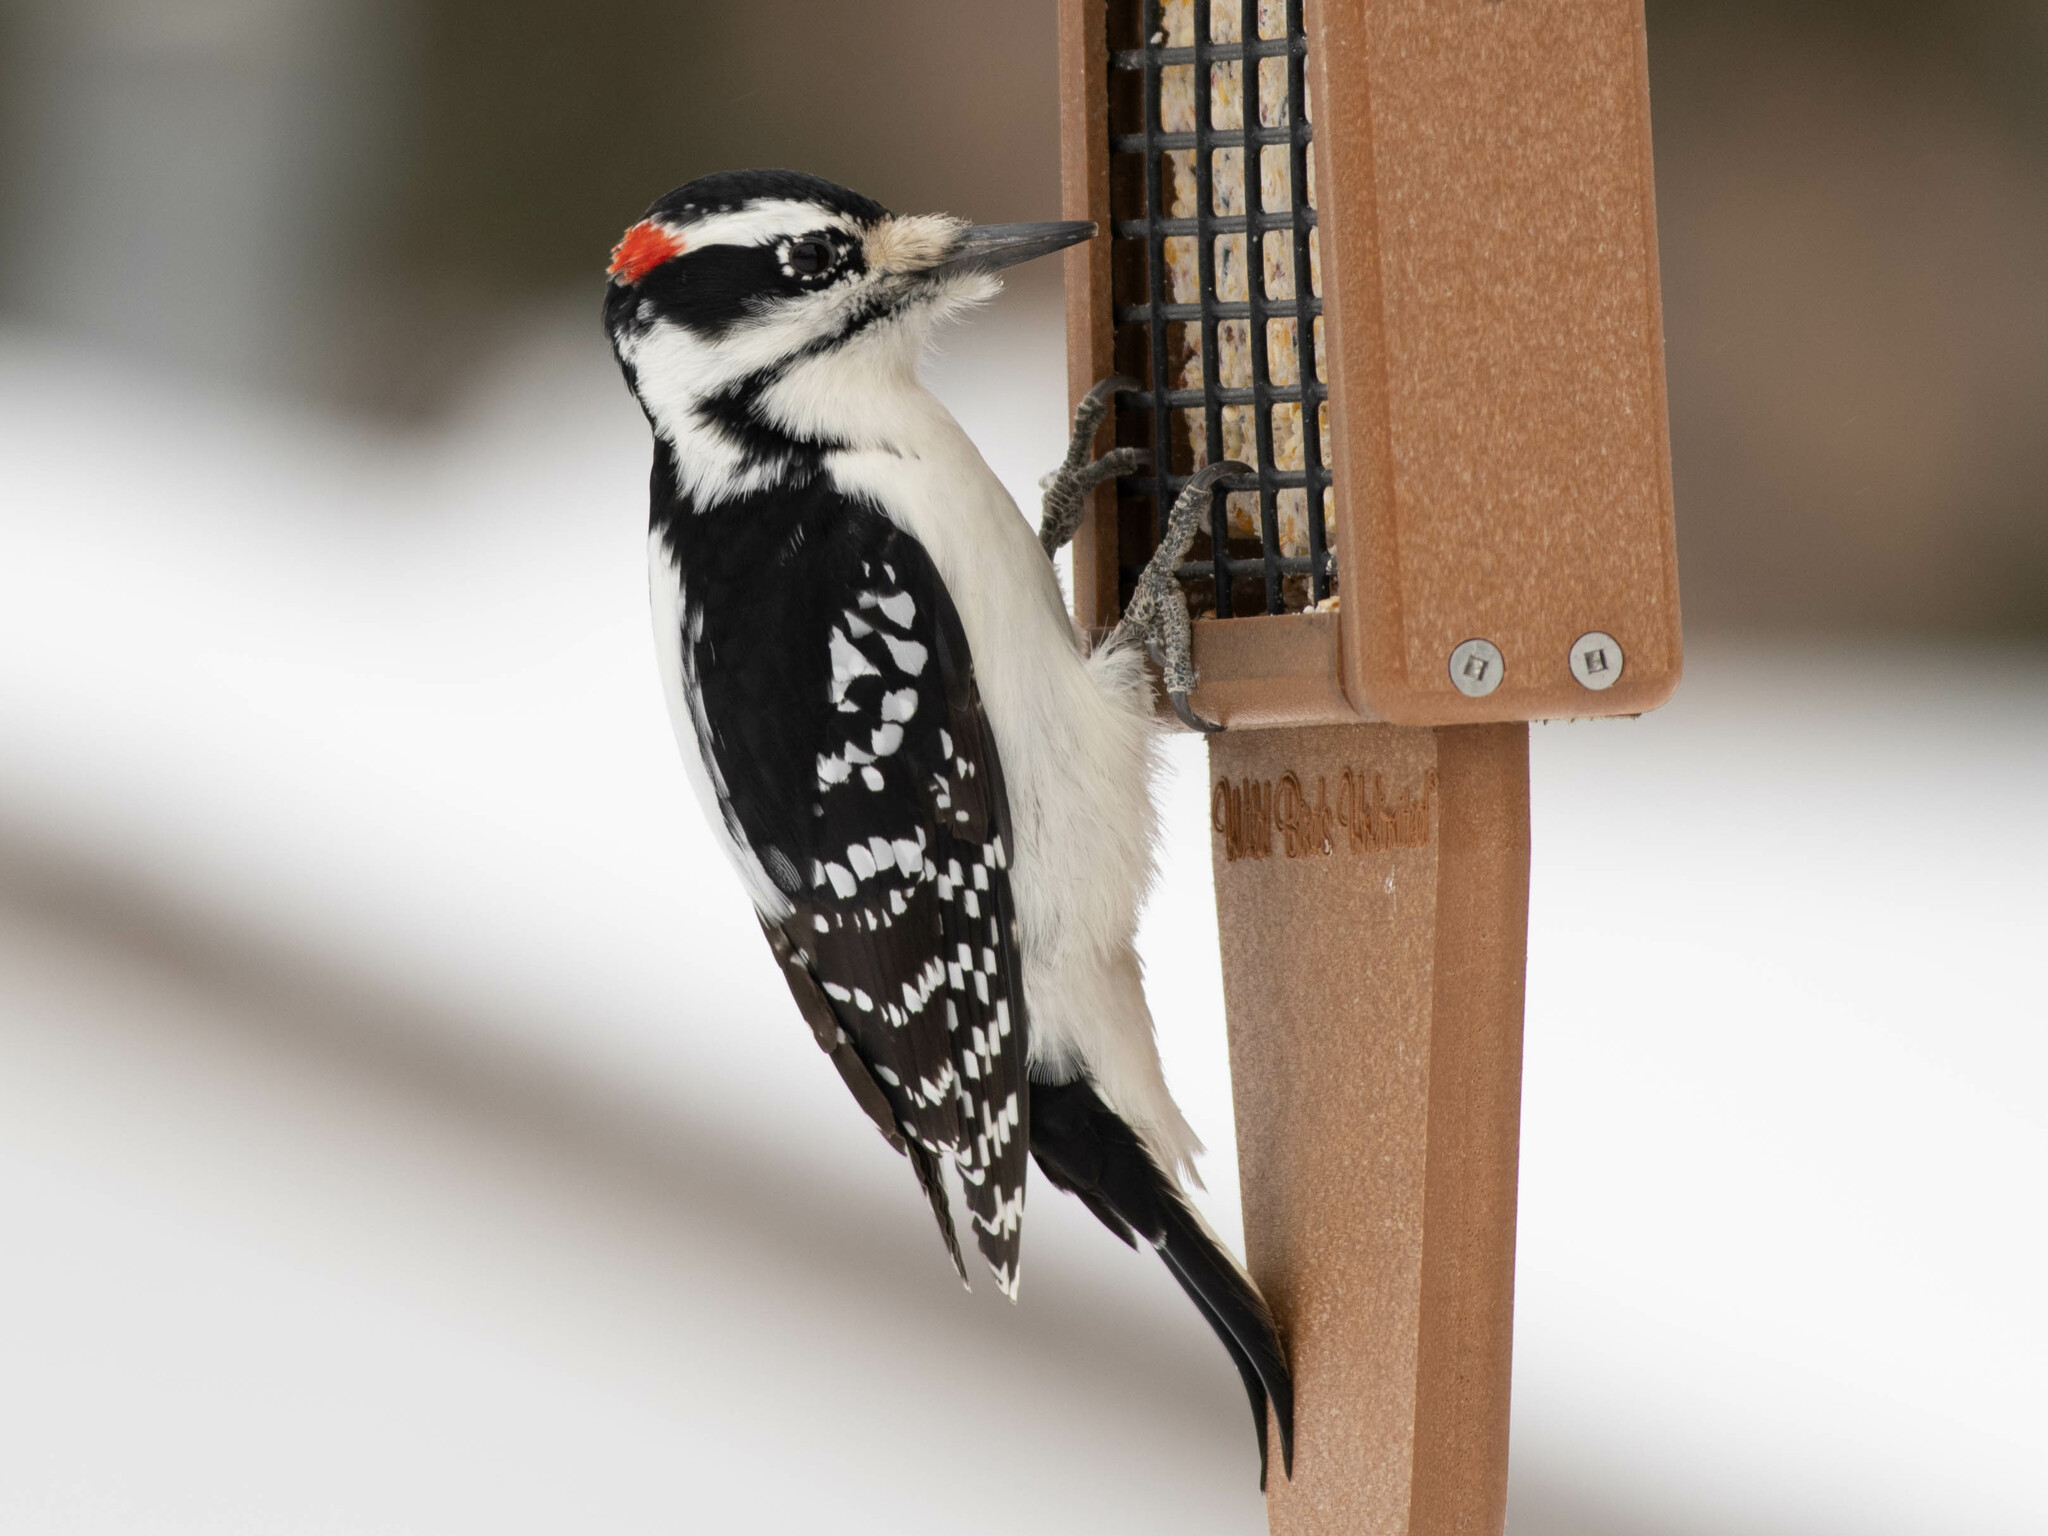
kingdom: Animalia
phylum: Chordata
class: Aves
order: Piciformes
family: Picidae
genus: Leuconotopicus
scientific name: Leuconotopicus villosus
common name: Hairy woodpecker
